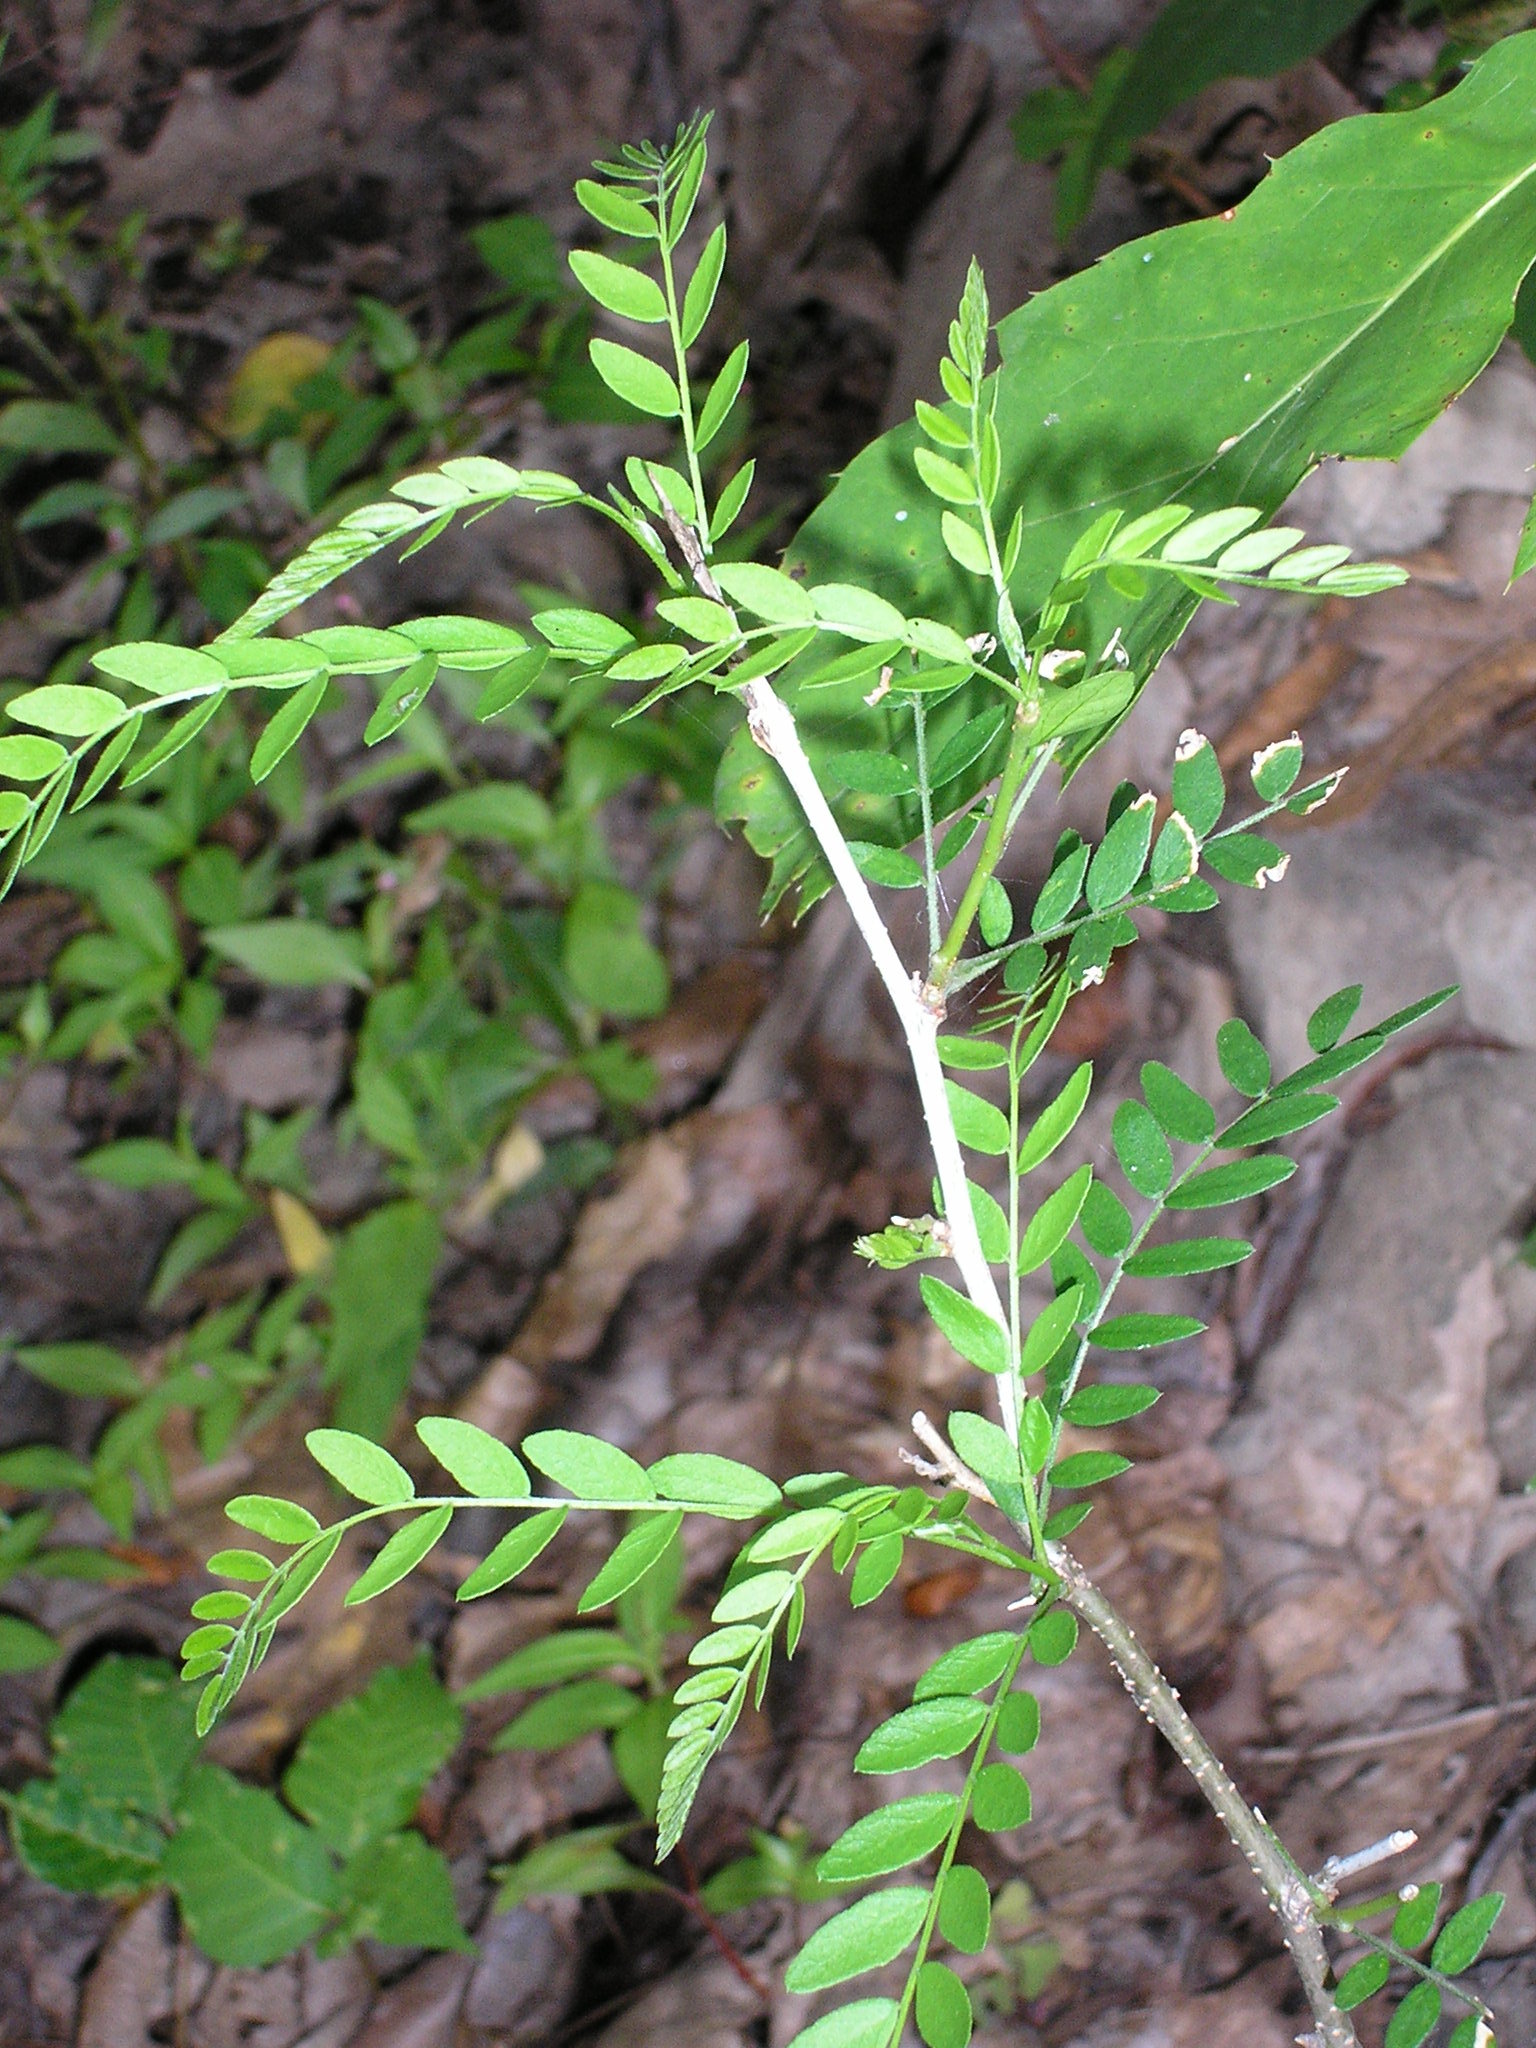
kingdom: Plantae
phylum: Tracheophyta
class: Magnoliopsida
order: Fabales
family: Fabaceae
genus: Gleditsia
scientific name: Gleditsia triacanthos
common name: Common honeylocust
